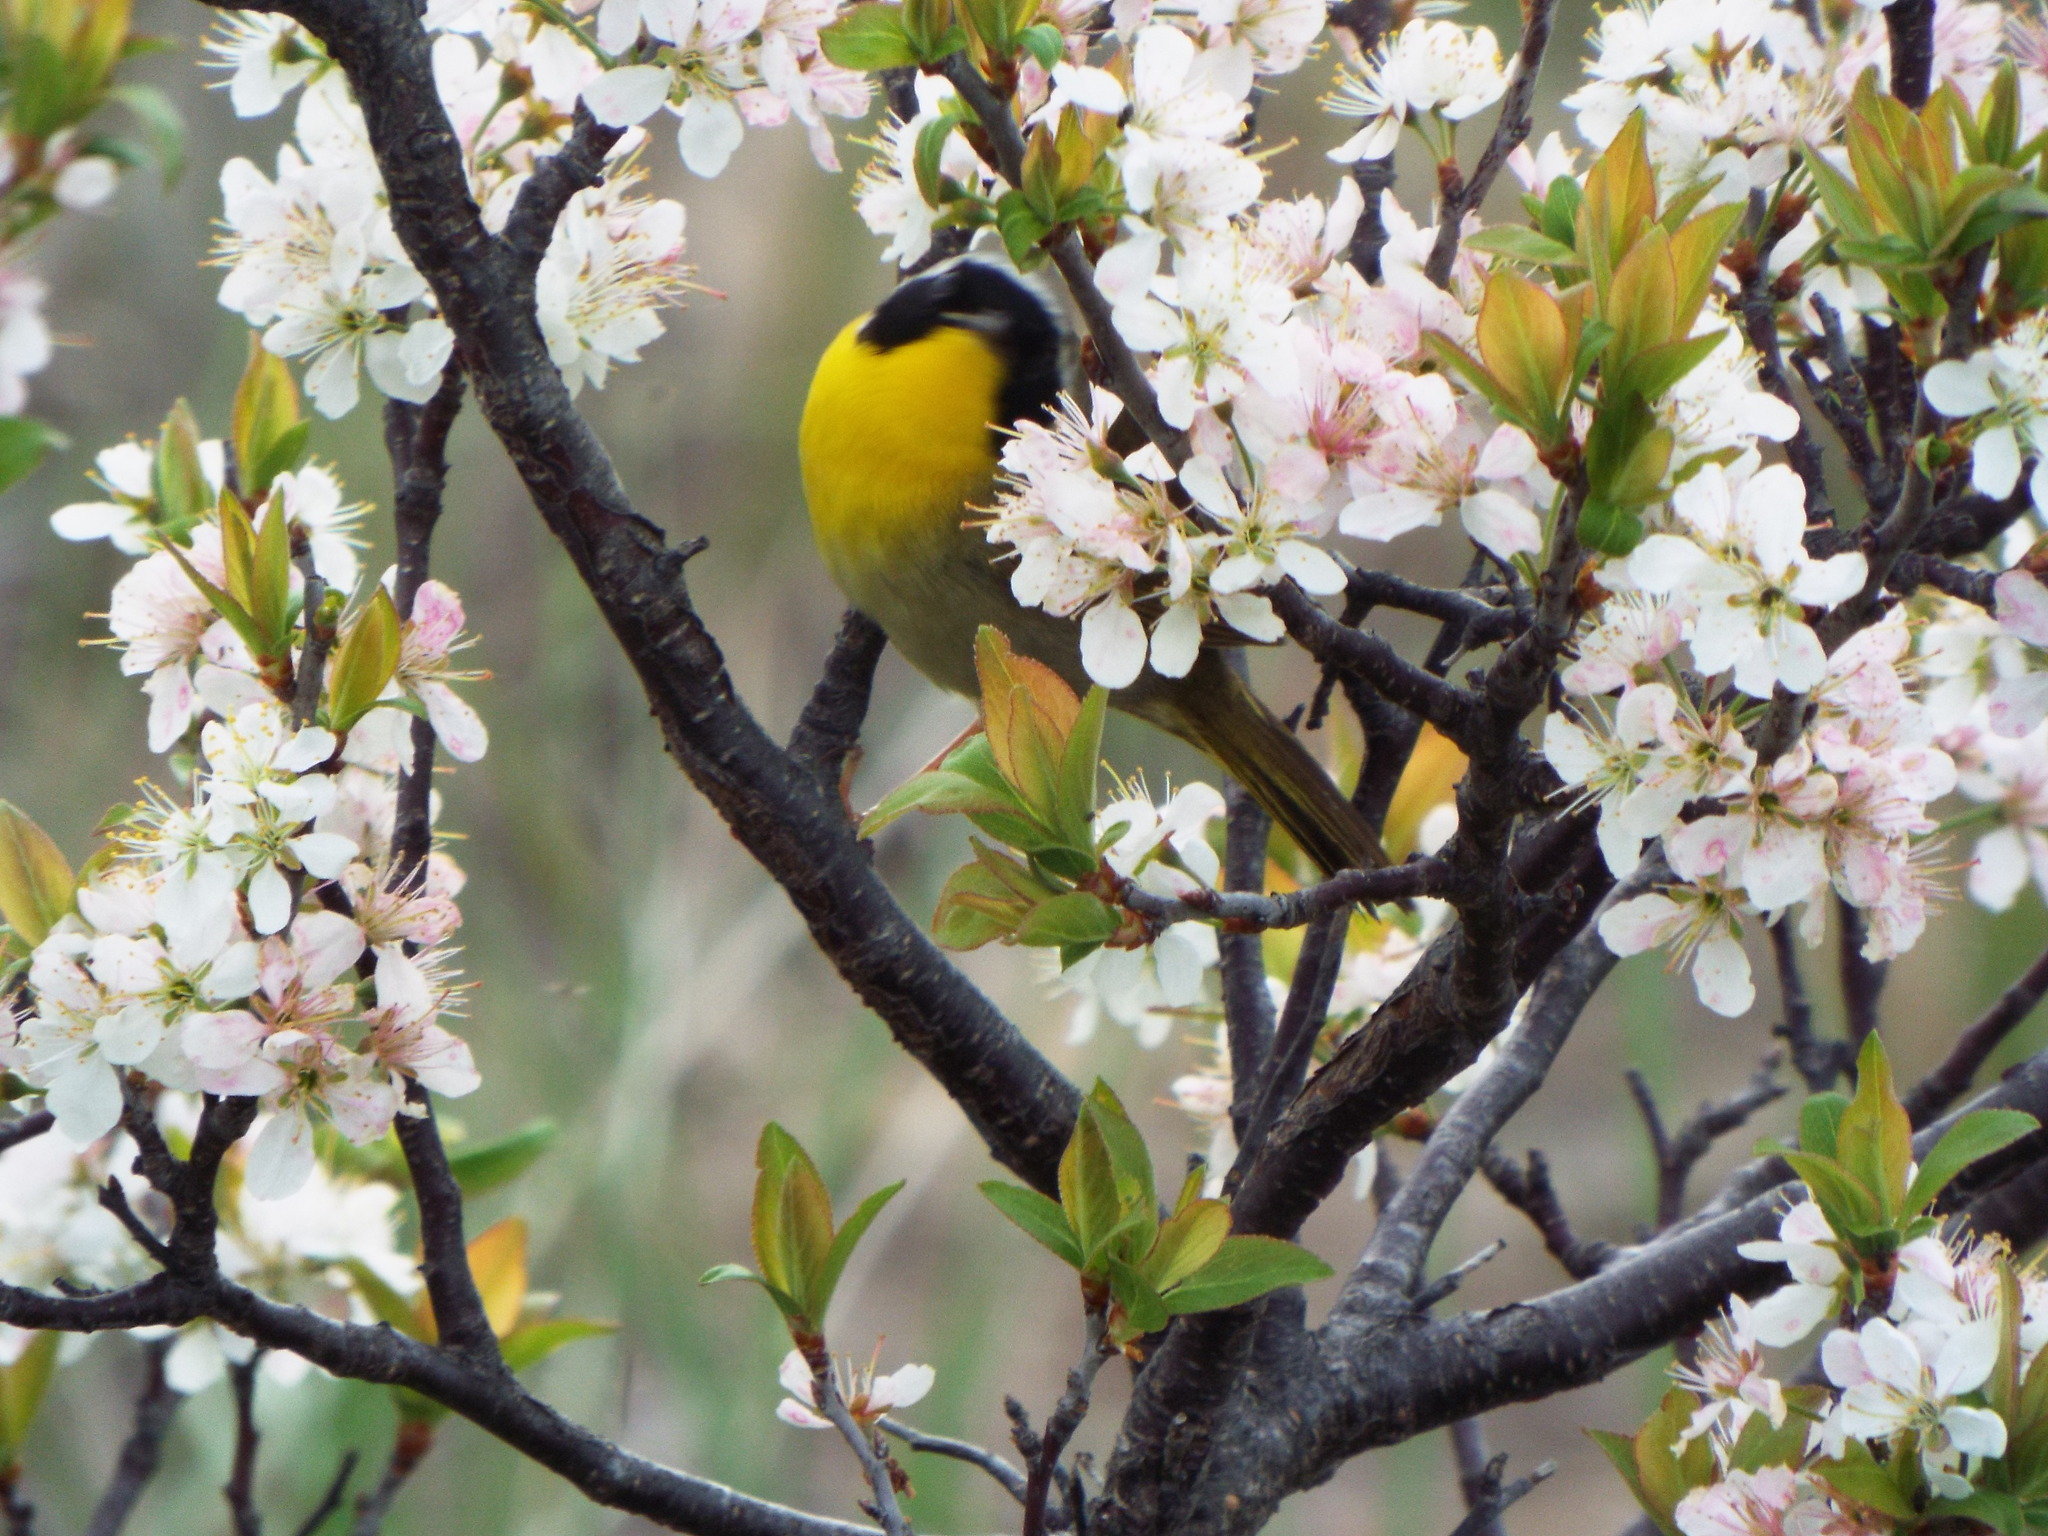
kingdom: Animalia
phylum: Chordata
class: Aves
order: Passeriformes
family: Parulidae
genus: Geothlypis
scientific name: Geothlypis trichas
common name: Common yellowthroat
